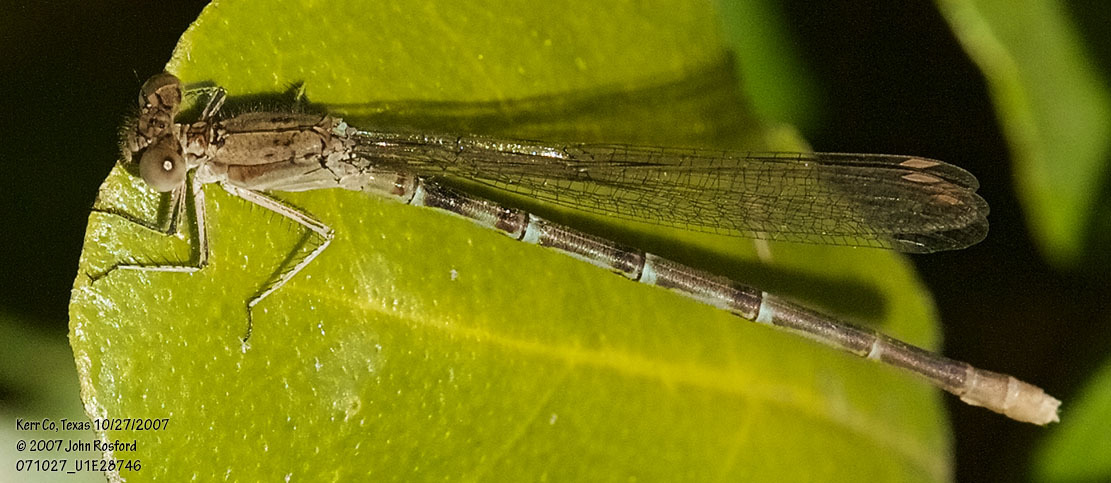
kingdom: Animalia
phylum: Arthropoda
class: Insecta
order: Odonata
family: Coenagrionidae
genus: Argia
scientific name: Argia sedula
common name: Blue-ringed dancer
